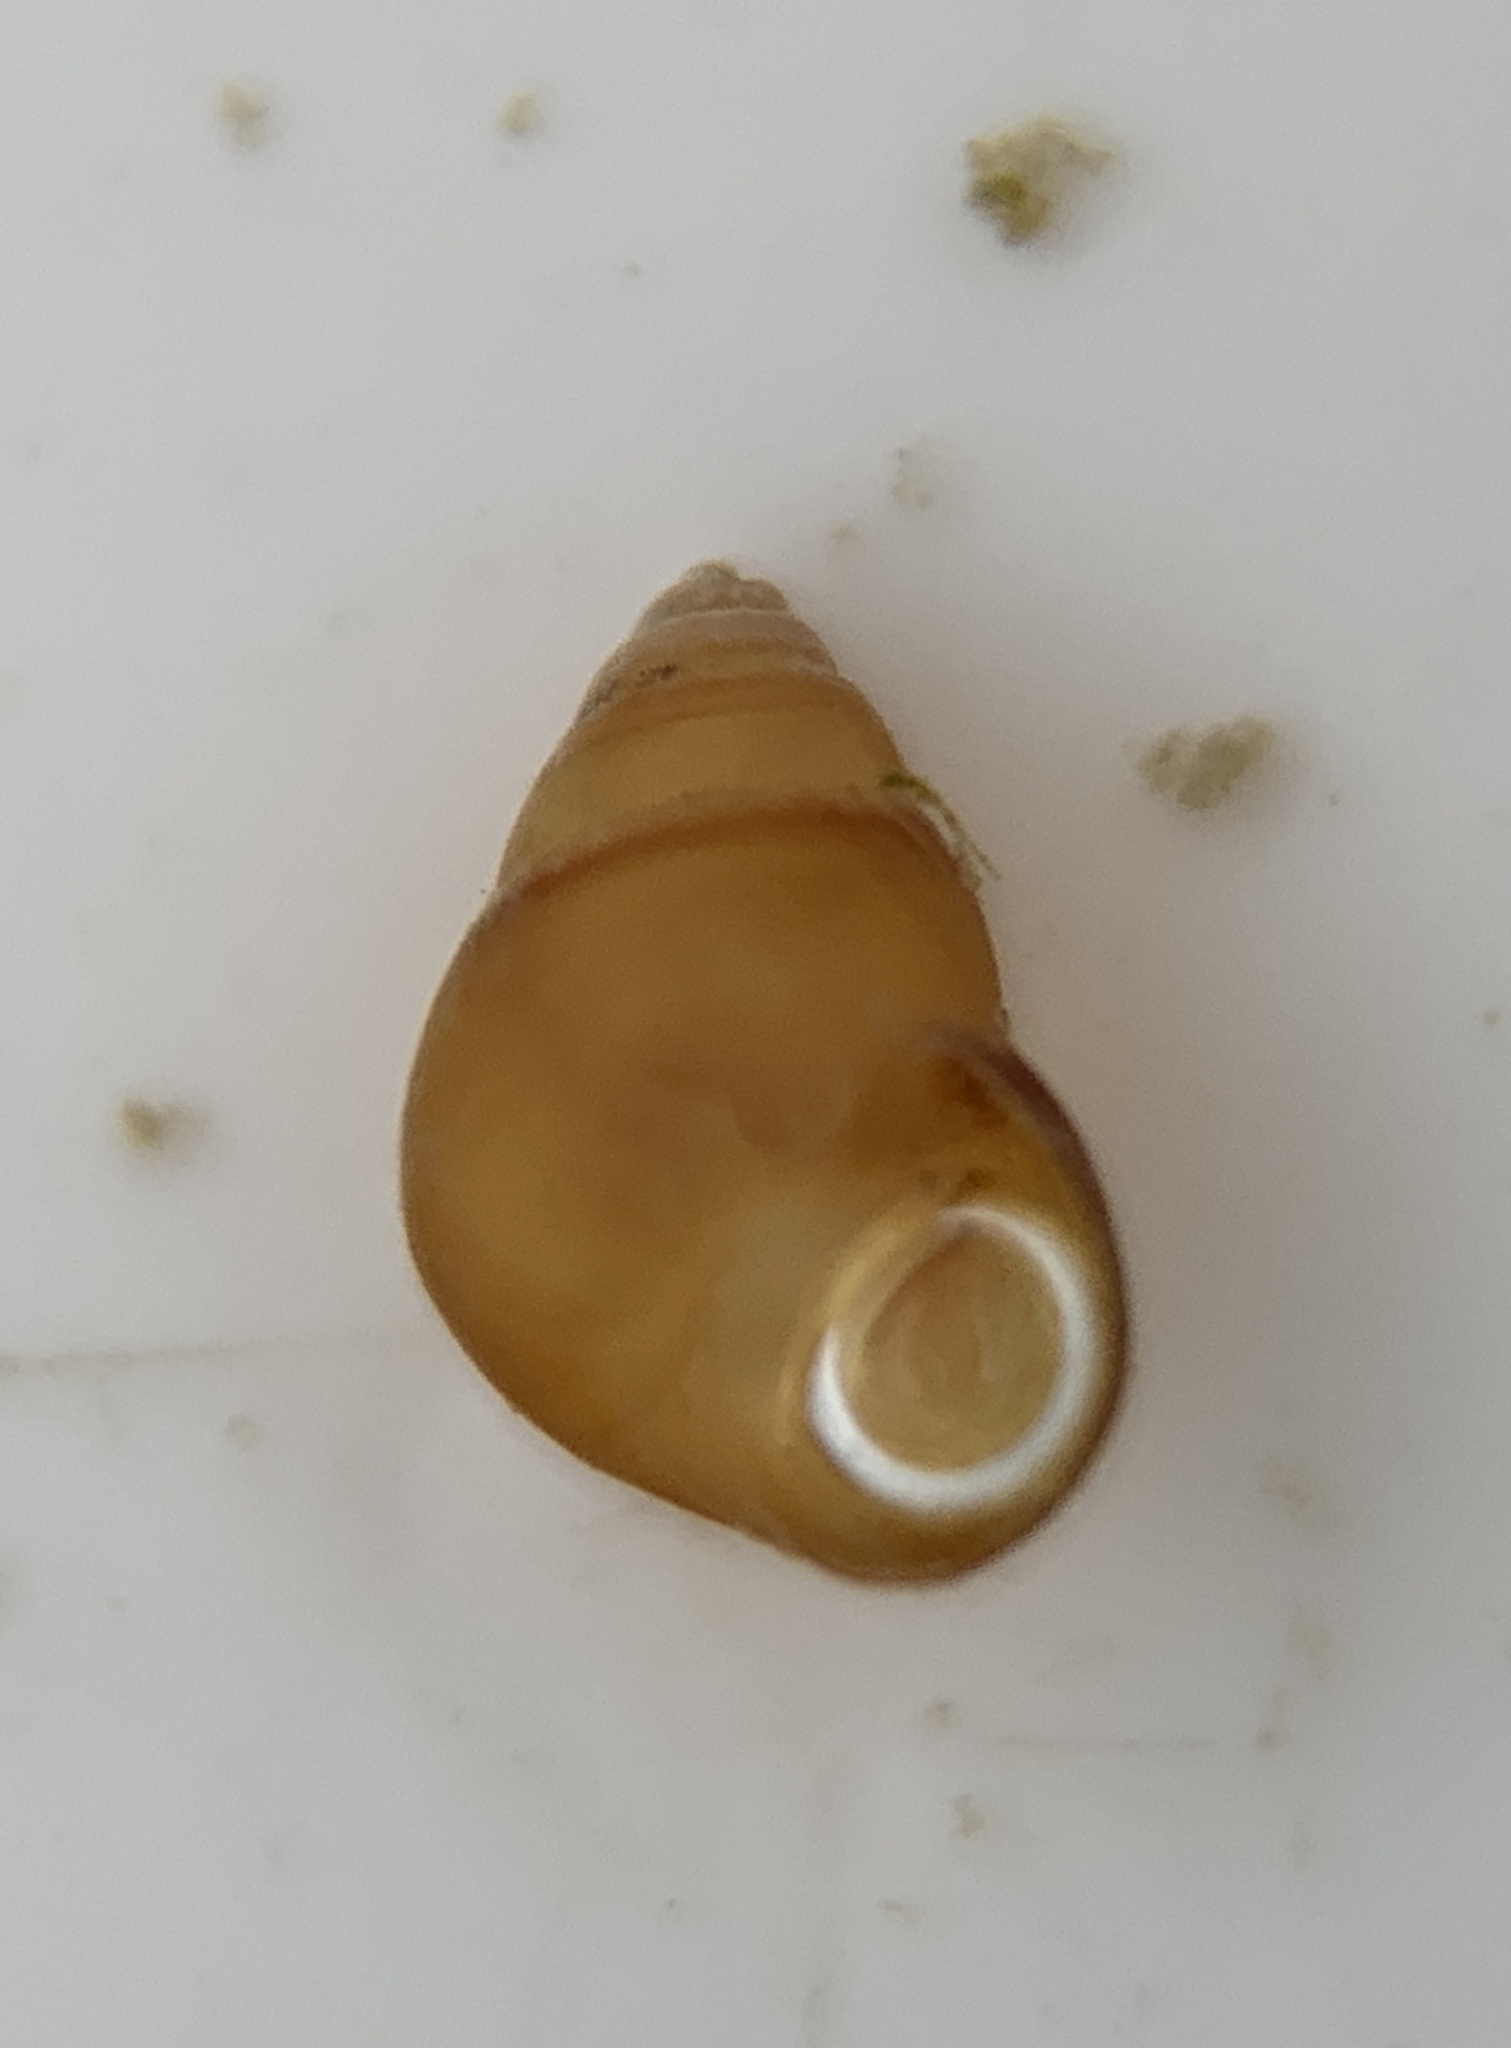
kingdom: Animalia
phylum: Mollusca
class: Gastropoda
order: Littorinimorpha
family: Assimineidae
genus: Angustassiminea
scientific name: Angustassiminea succinea
